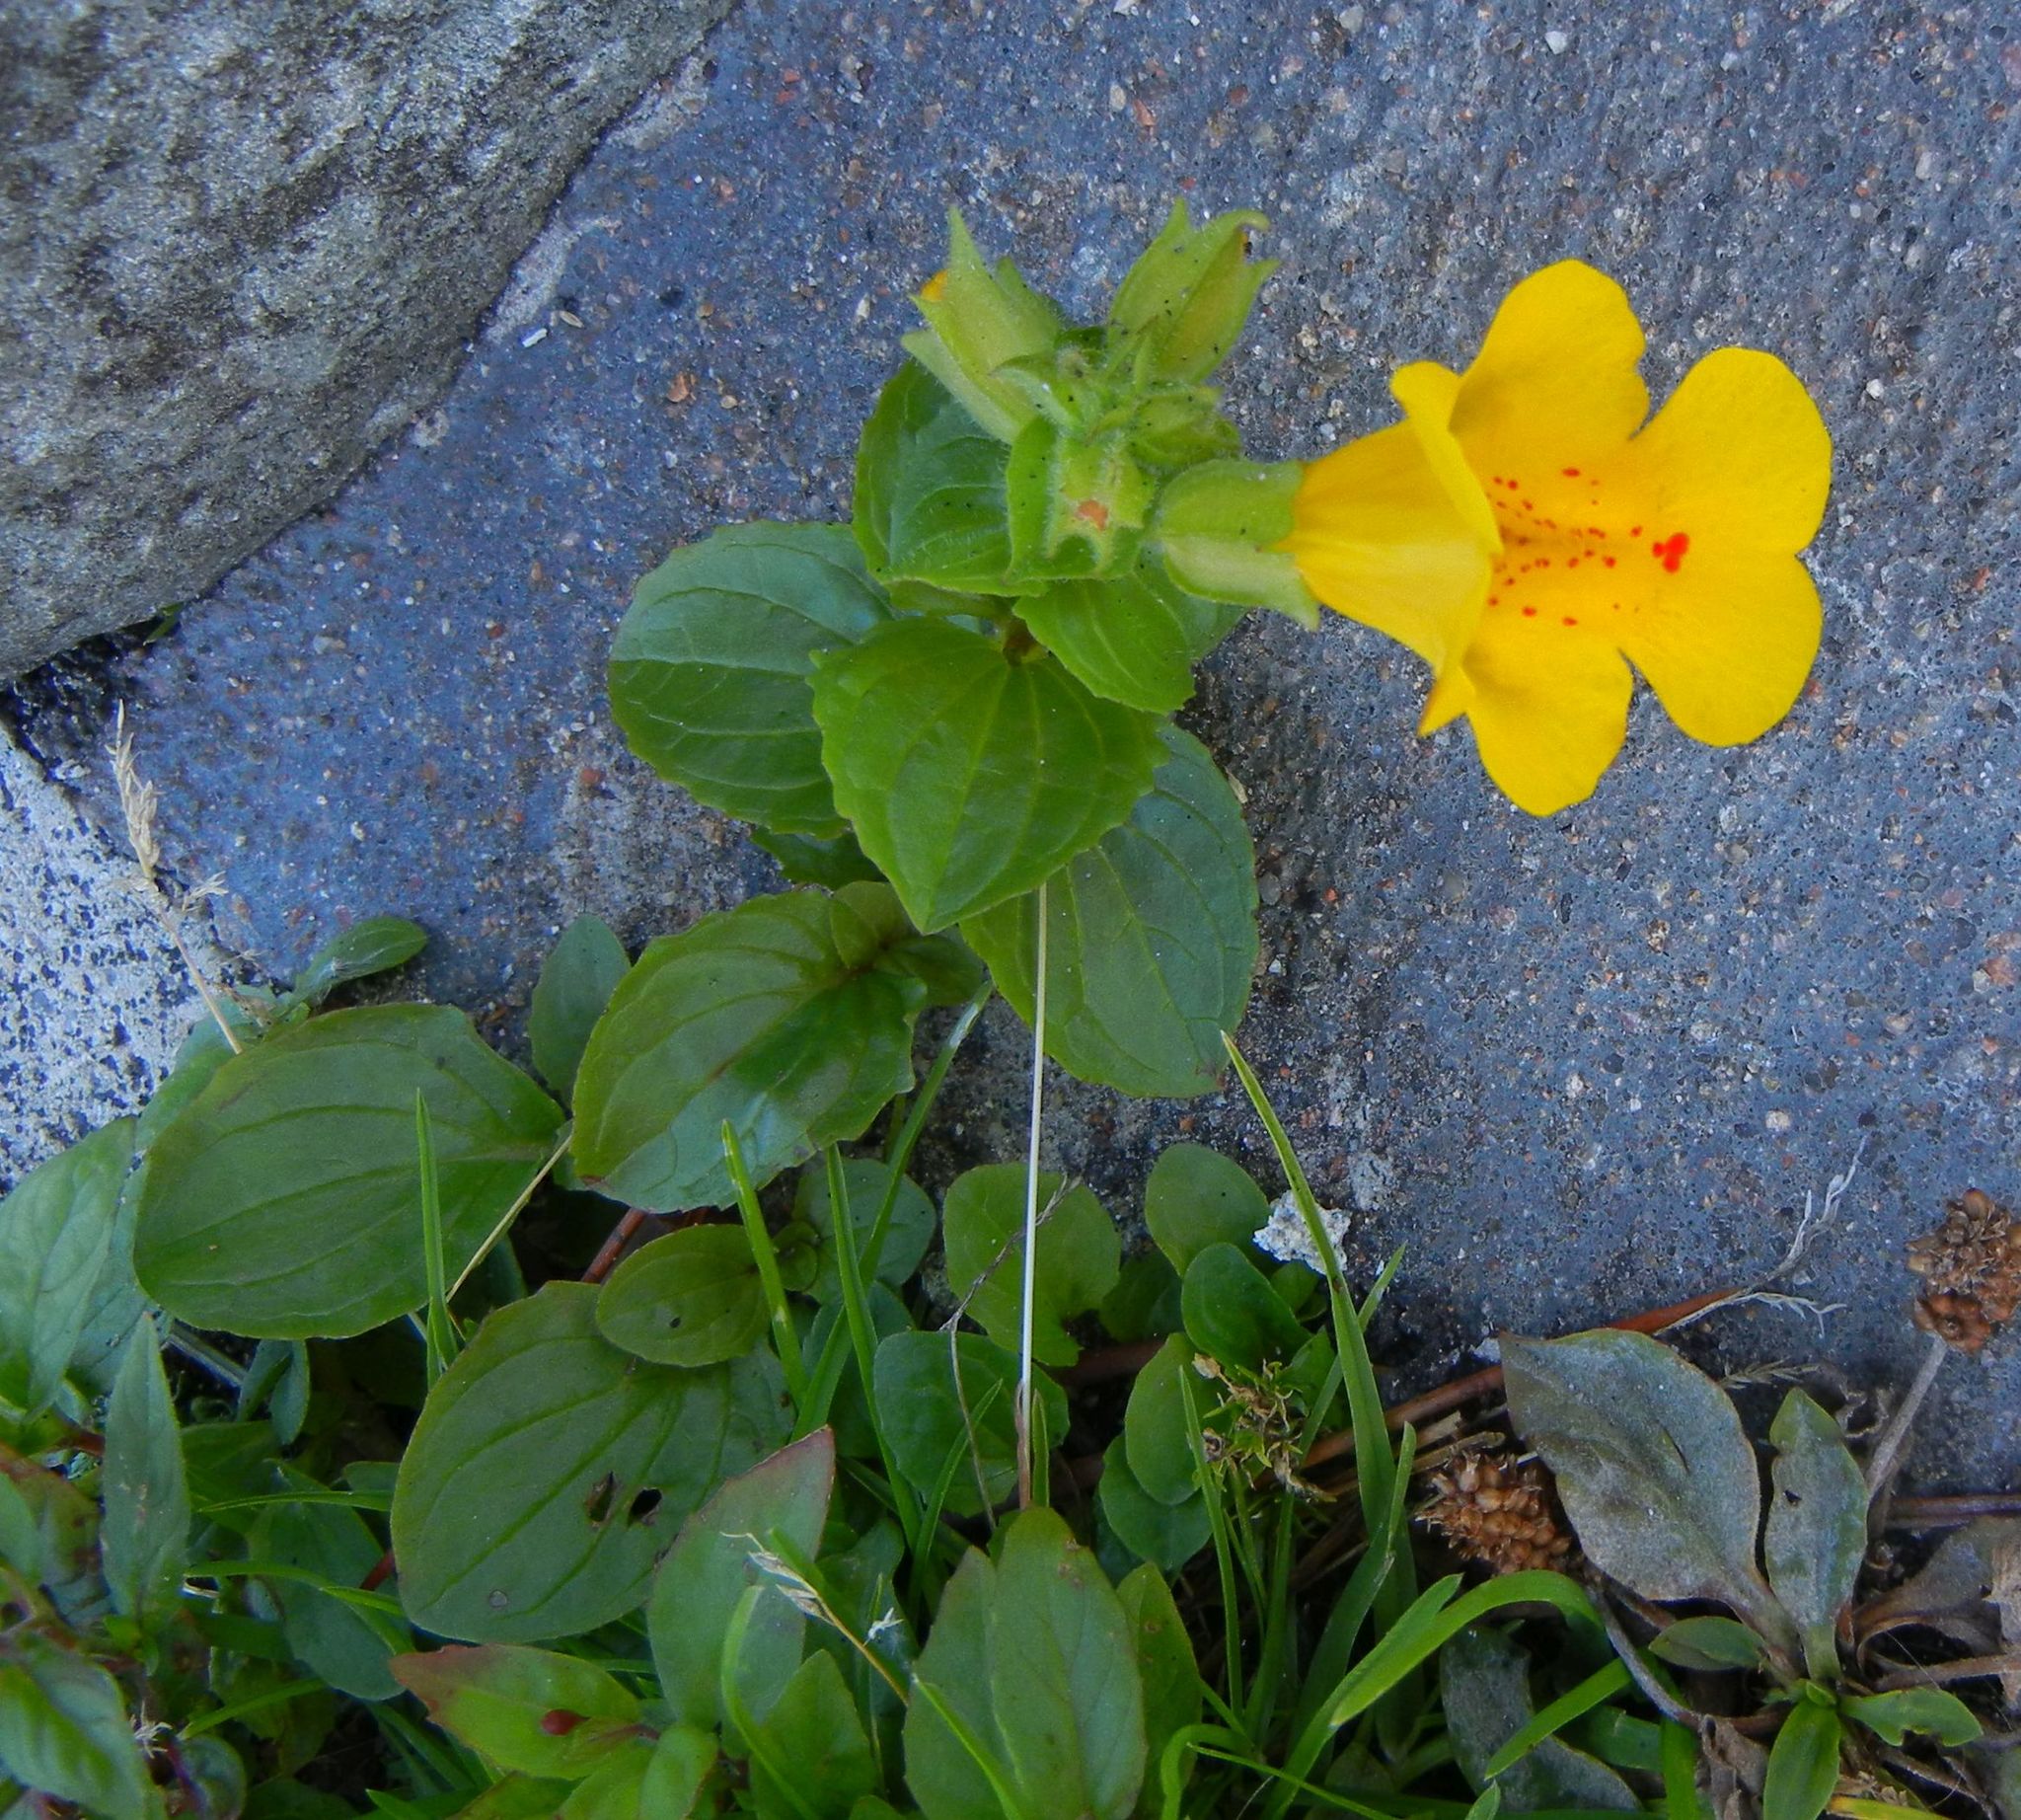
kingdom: Plantae
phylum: Tracheophyta
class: Magnoliopsida
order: Lamiales
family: Phrymaceae
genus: Erythranthe
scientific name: Erythranthe guttata
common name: Monkeyflower
